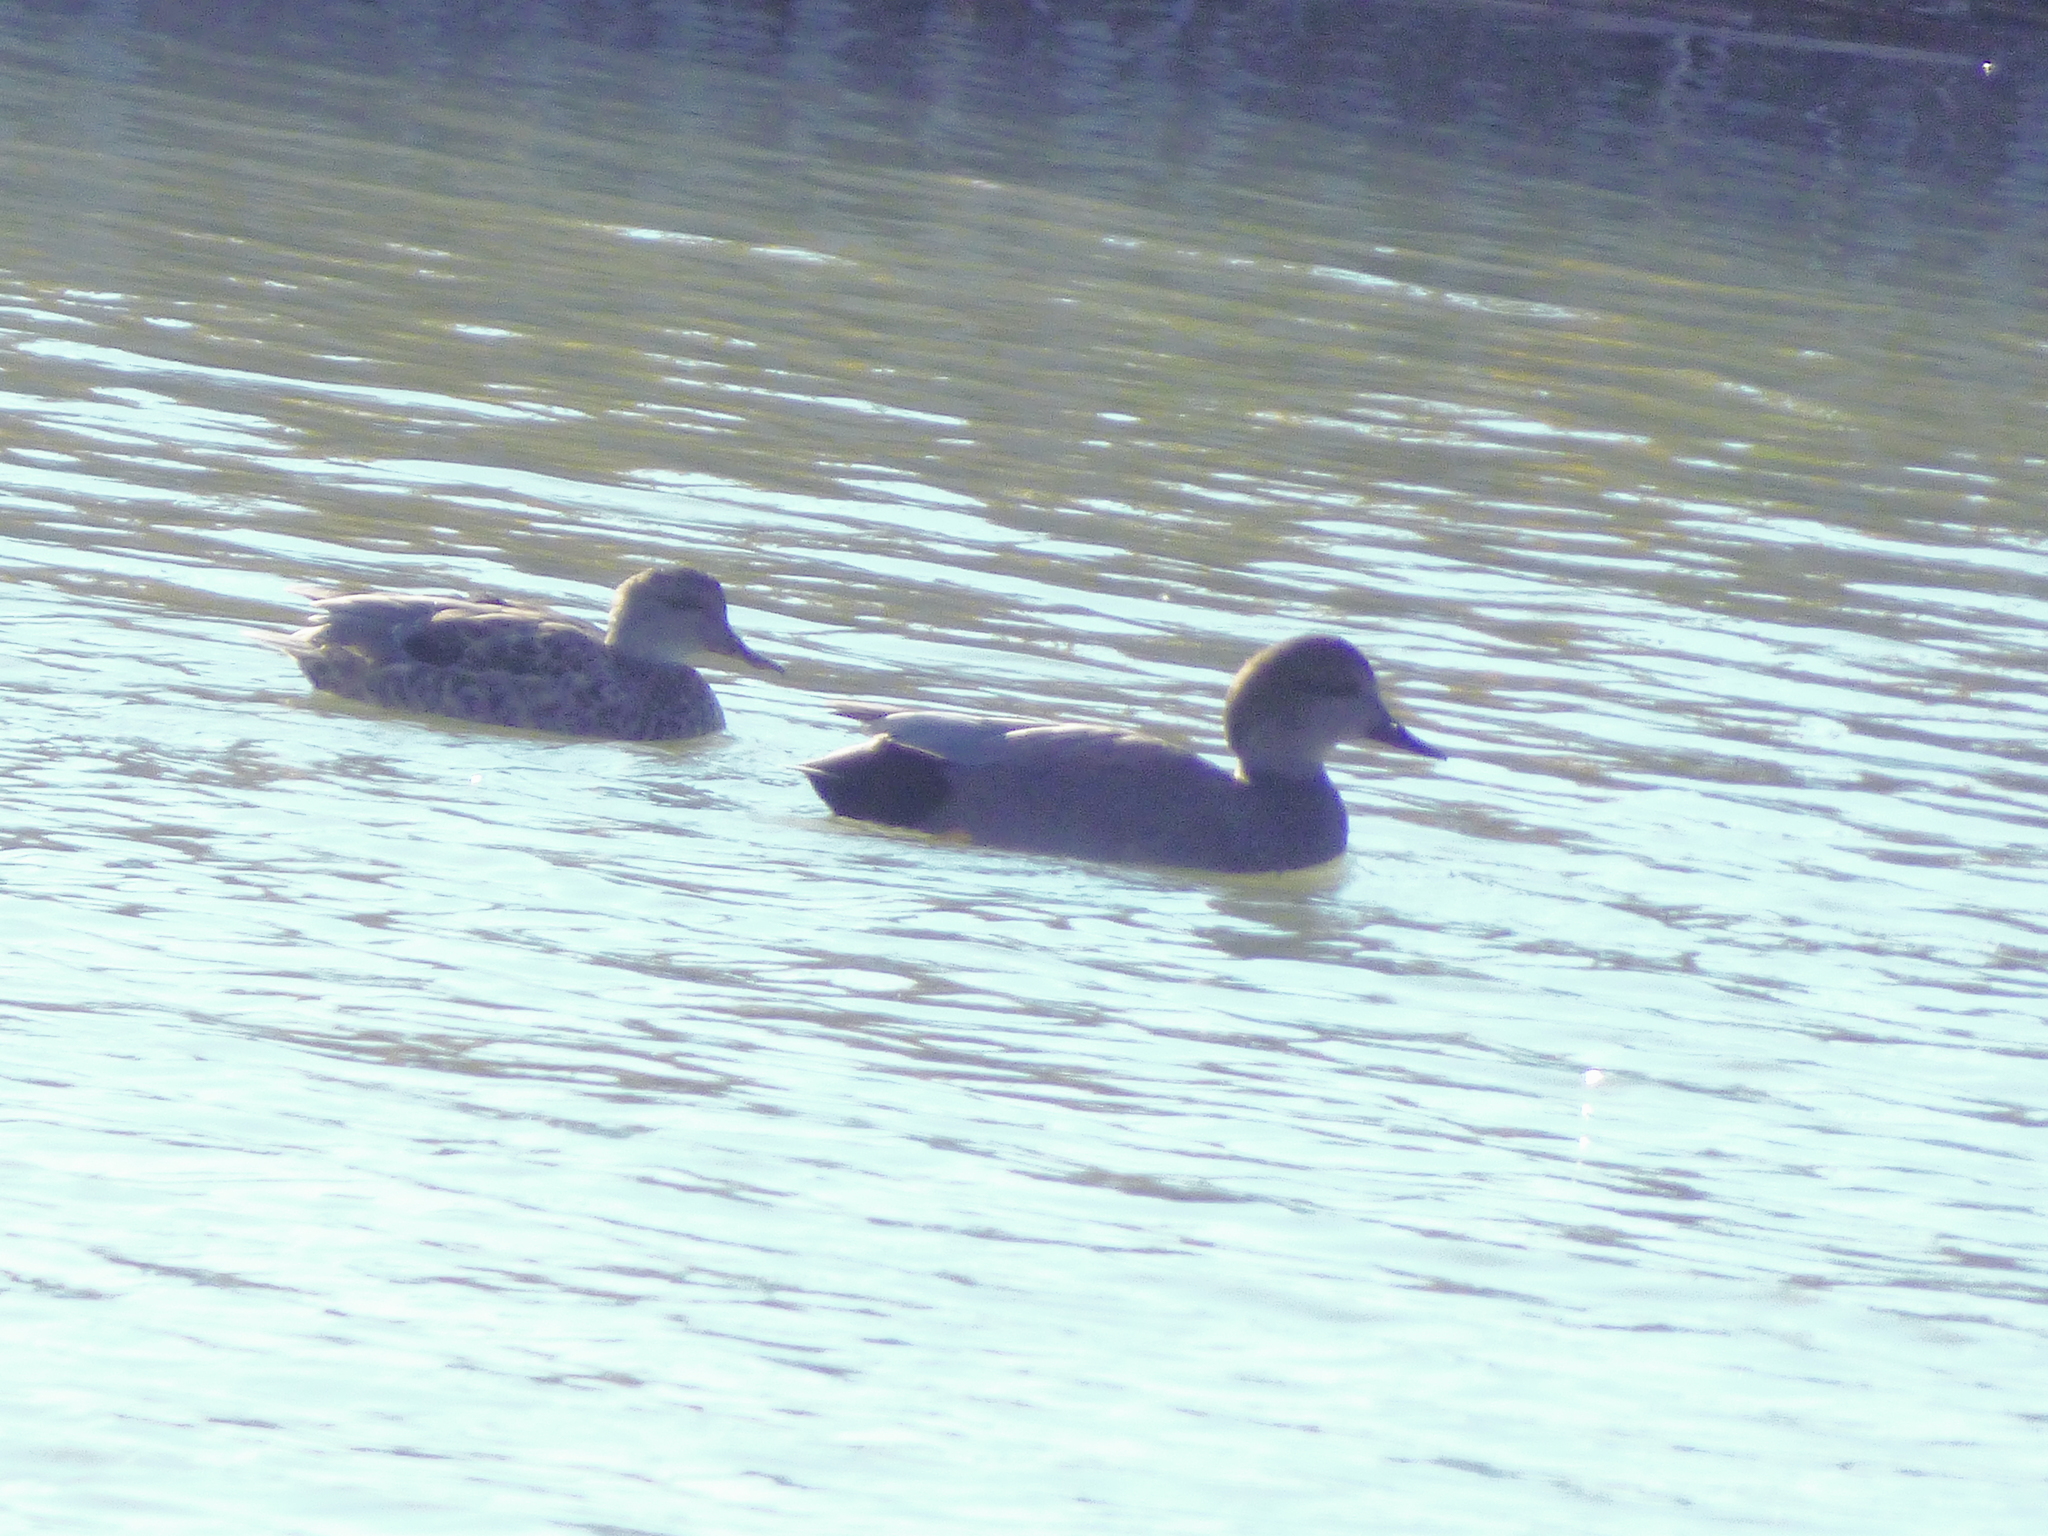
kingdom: Animalia
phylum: Chordata
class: Aves
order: Anseriformes
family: Anatidae
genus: Mareca
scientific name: Mareca strepera
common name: Gadwall
